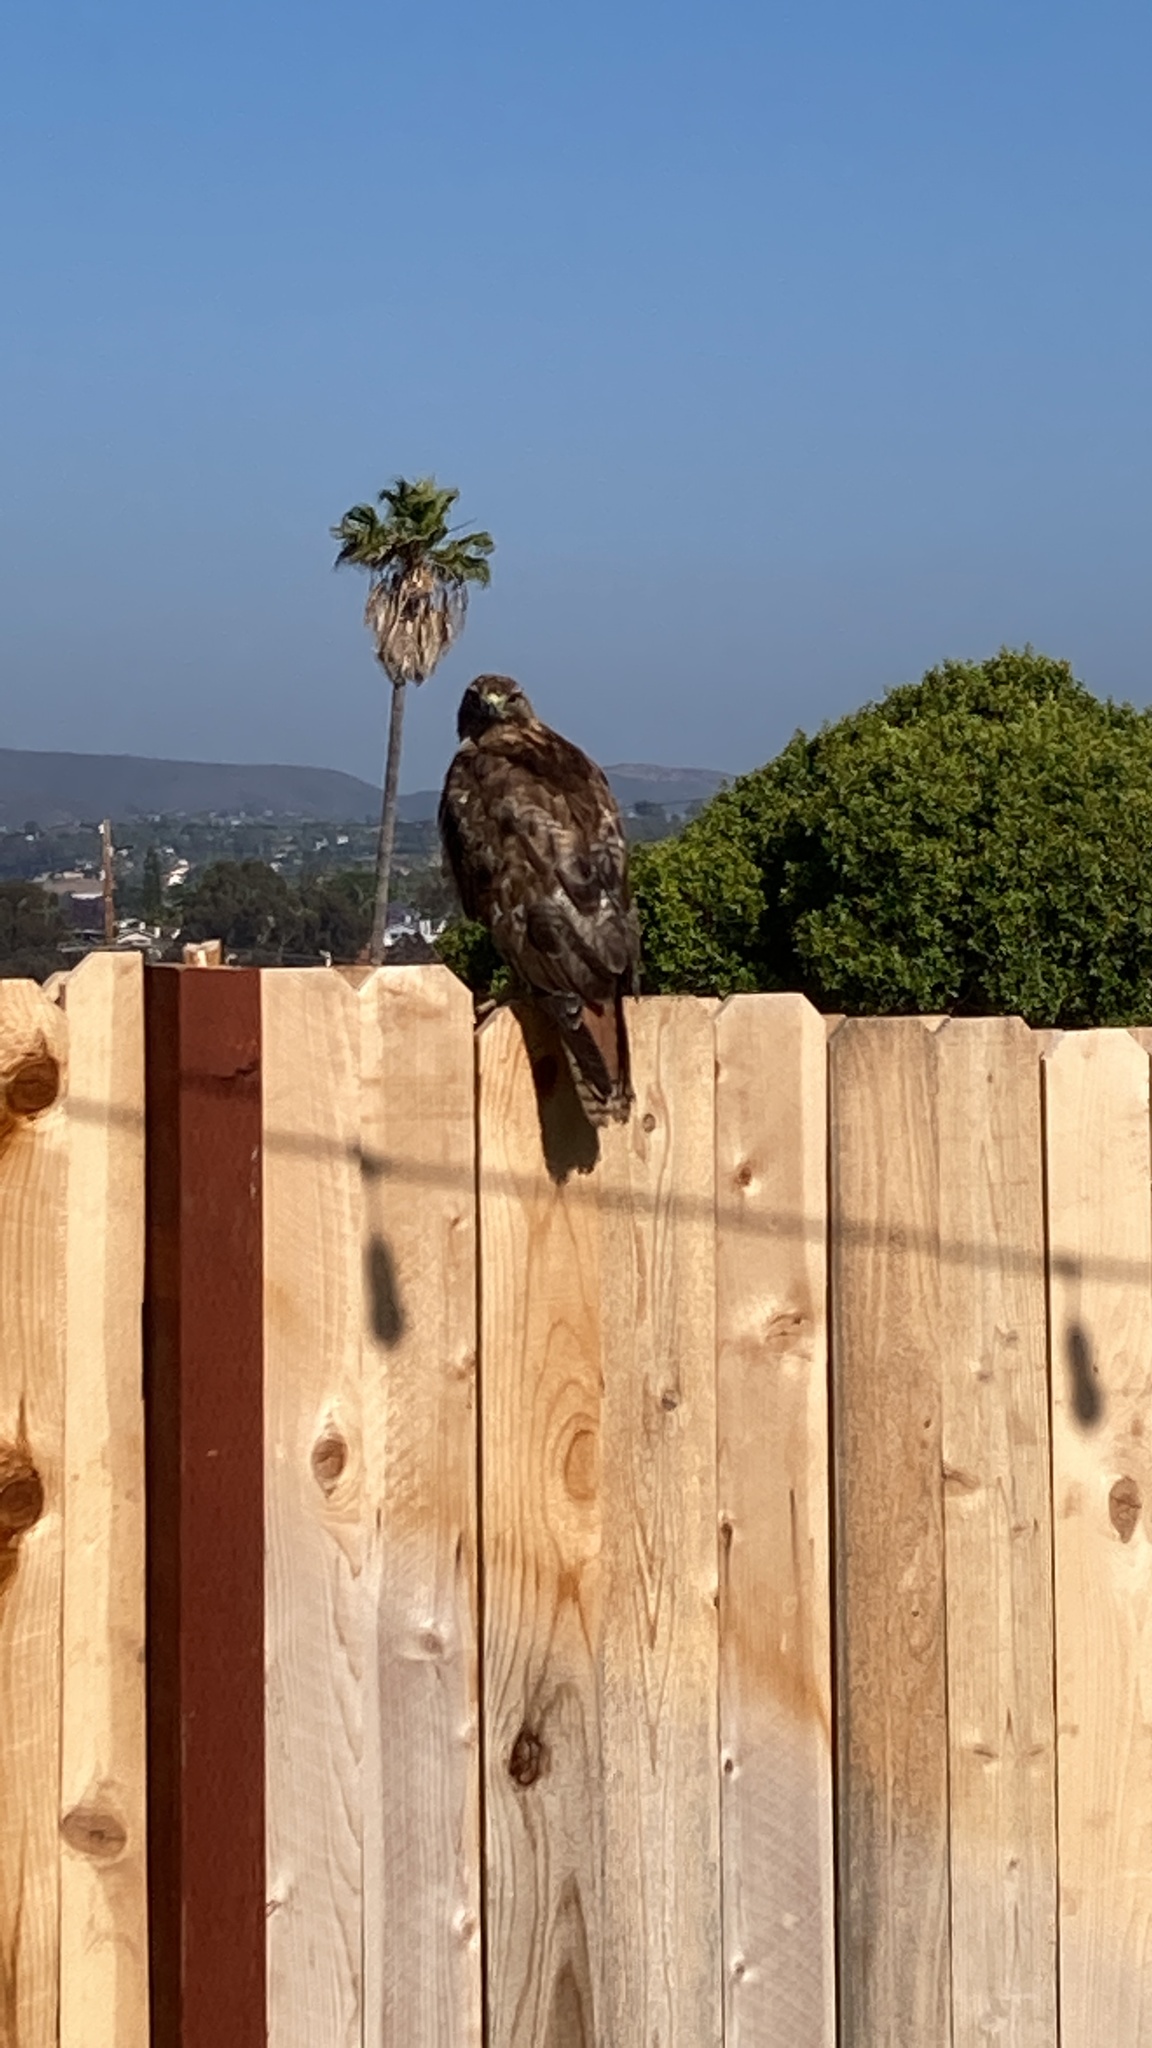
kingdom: Animalia
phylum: Chordata
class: Aves
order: Accipitriformes
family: Accipitridae
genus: Buteo
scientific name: Buteo jamaicensis
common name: Red-tailed hawk
